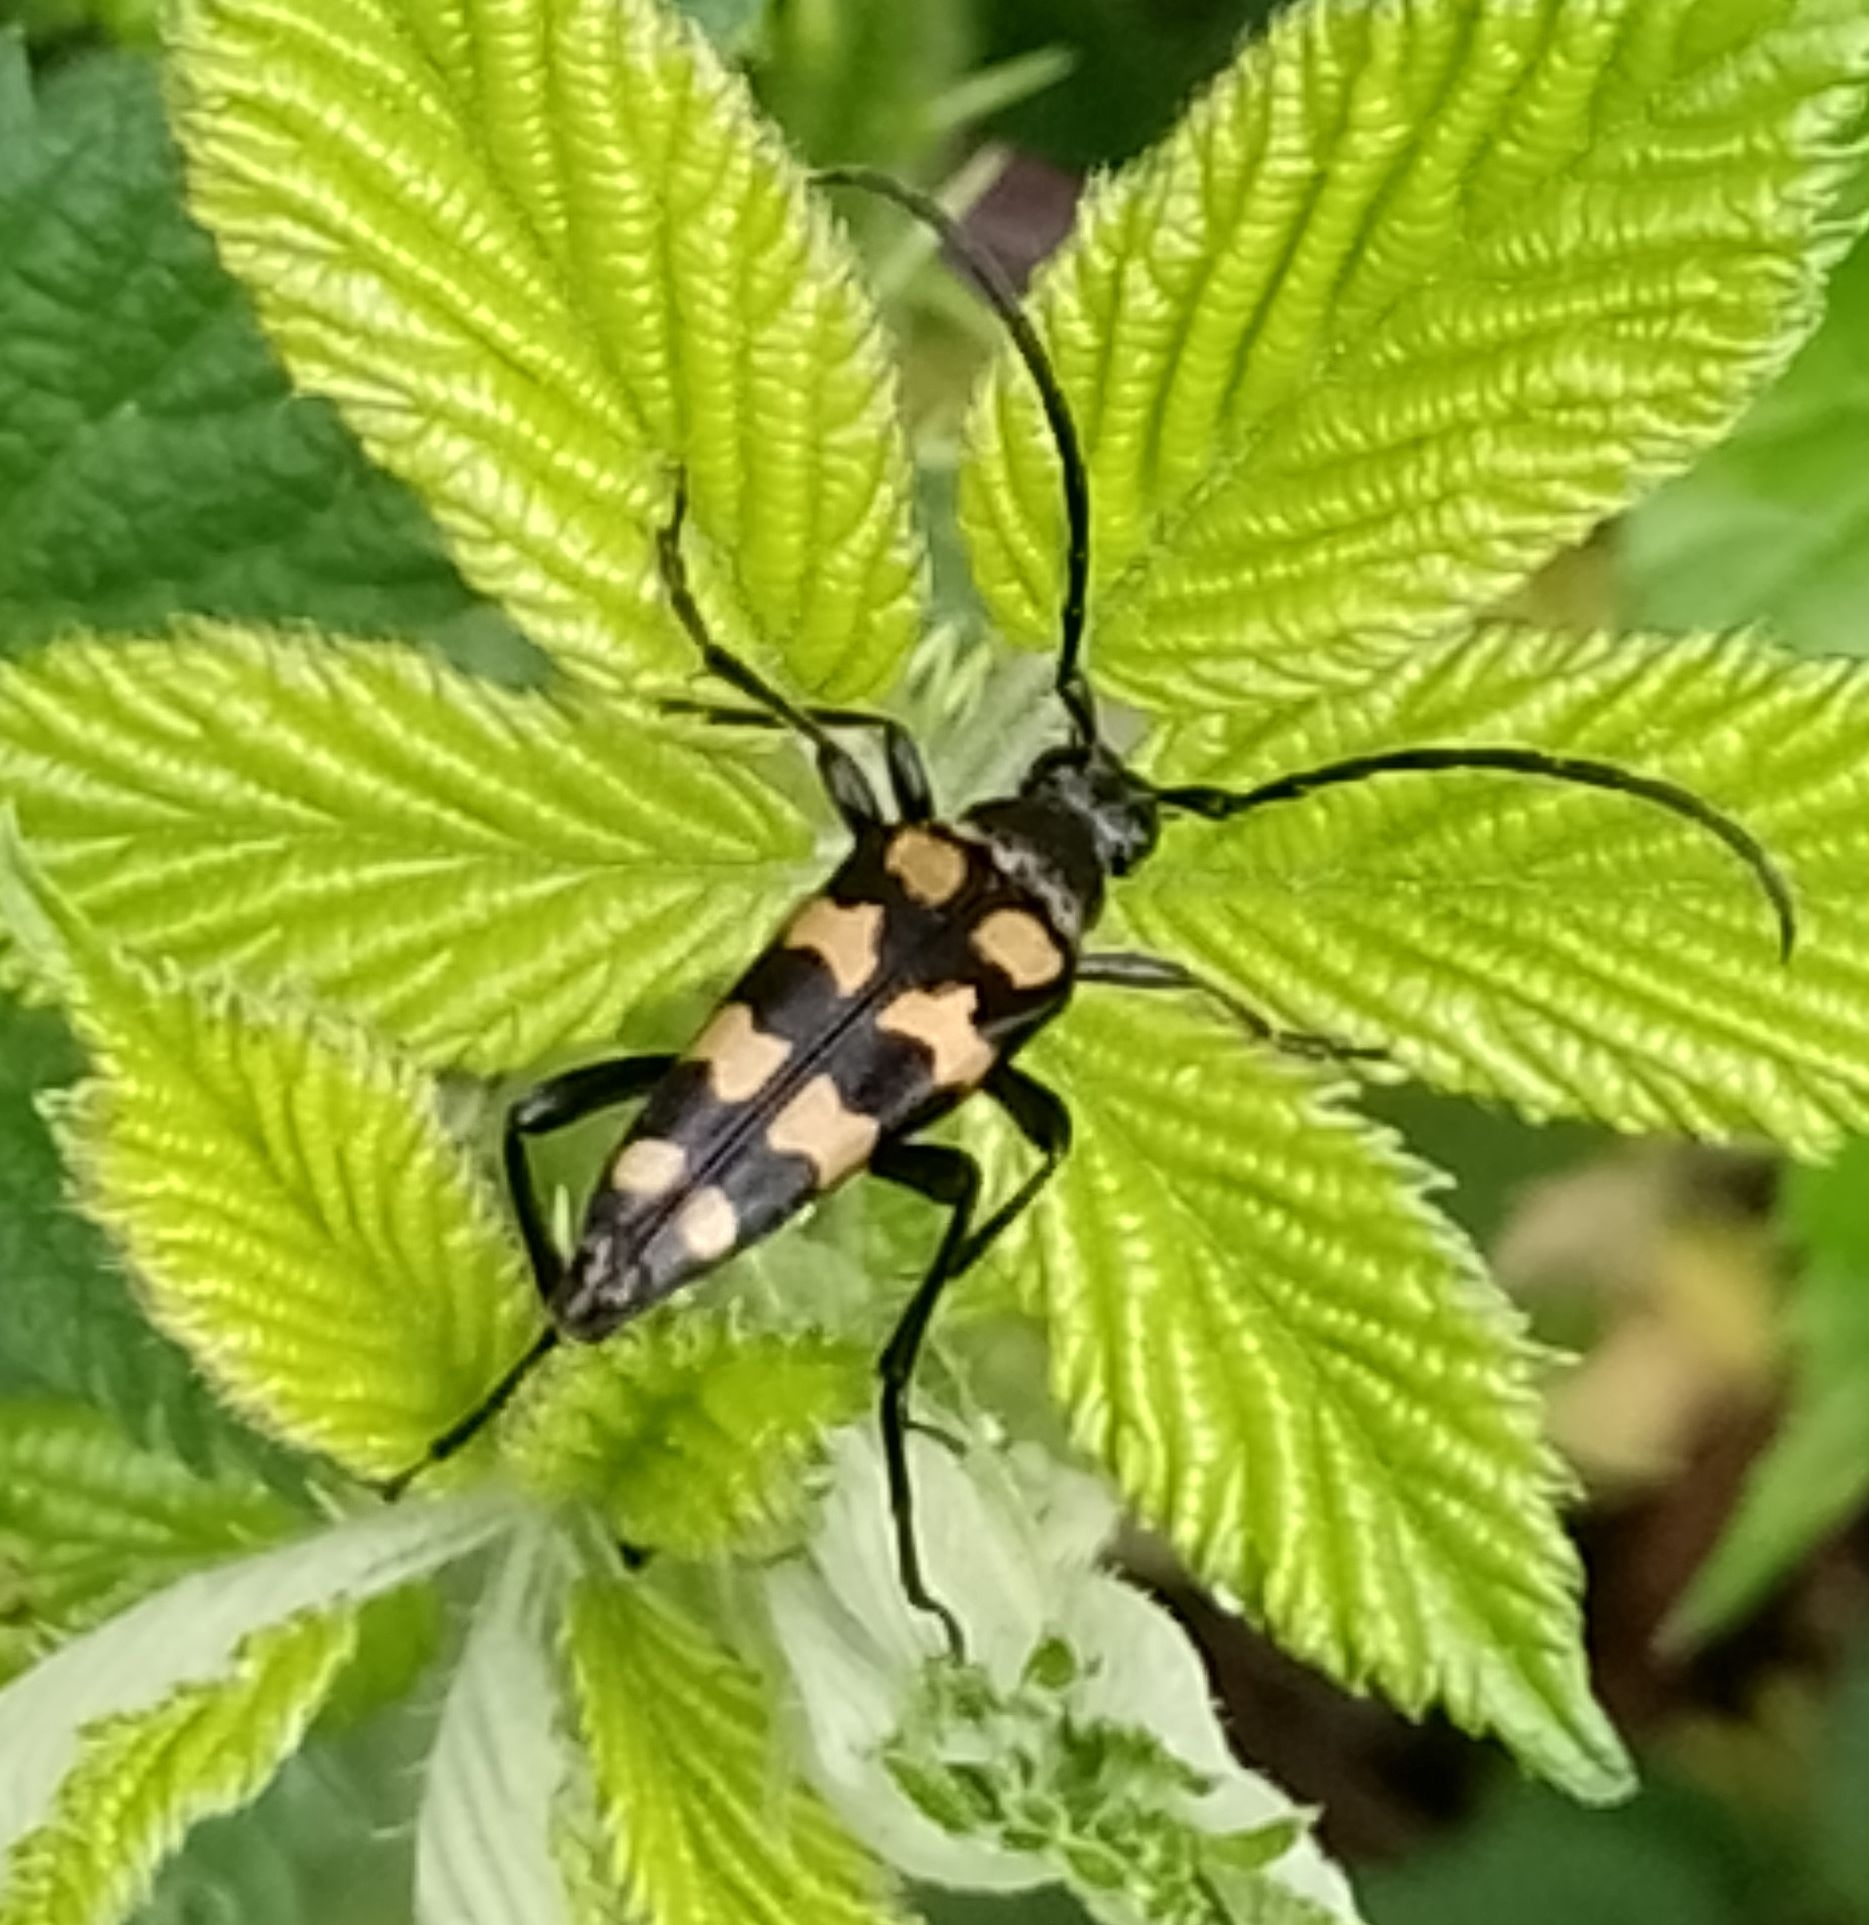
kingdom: Animalia
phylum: Arthropoda
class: Insecta
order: Coleoptera
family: Cerambycidae
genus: Leptura
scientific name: Leptura quadrifasciata
